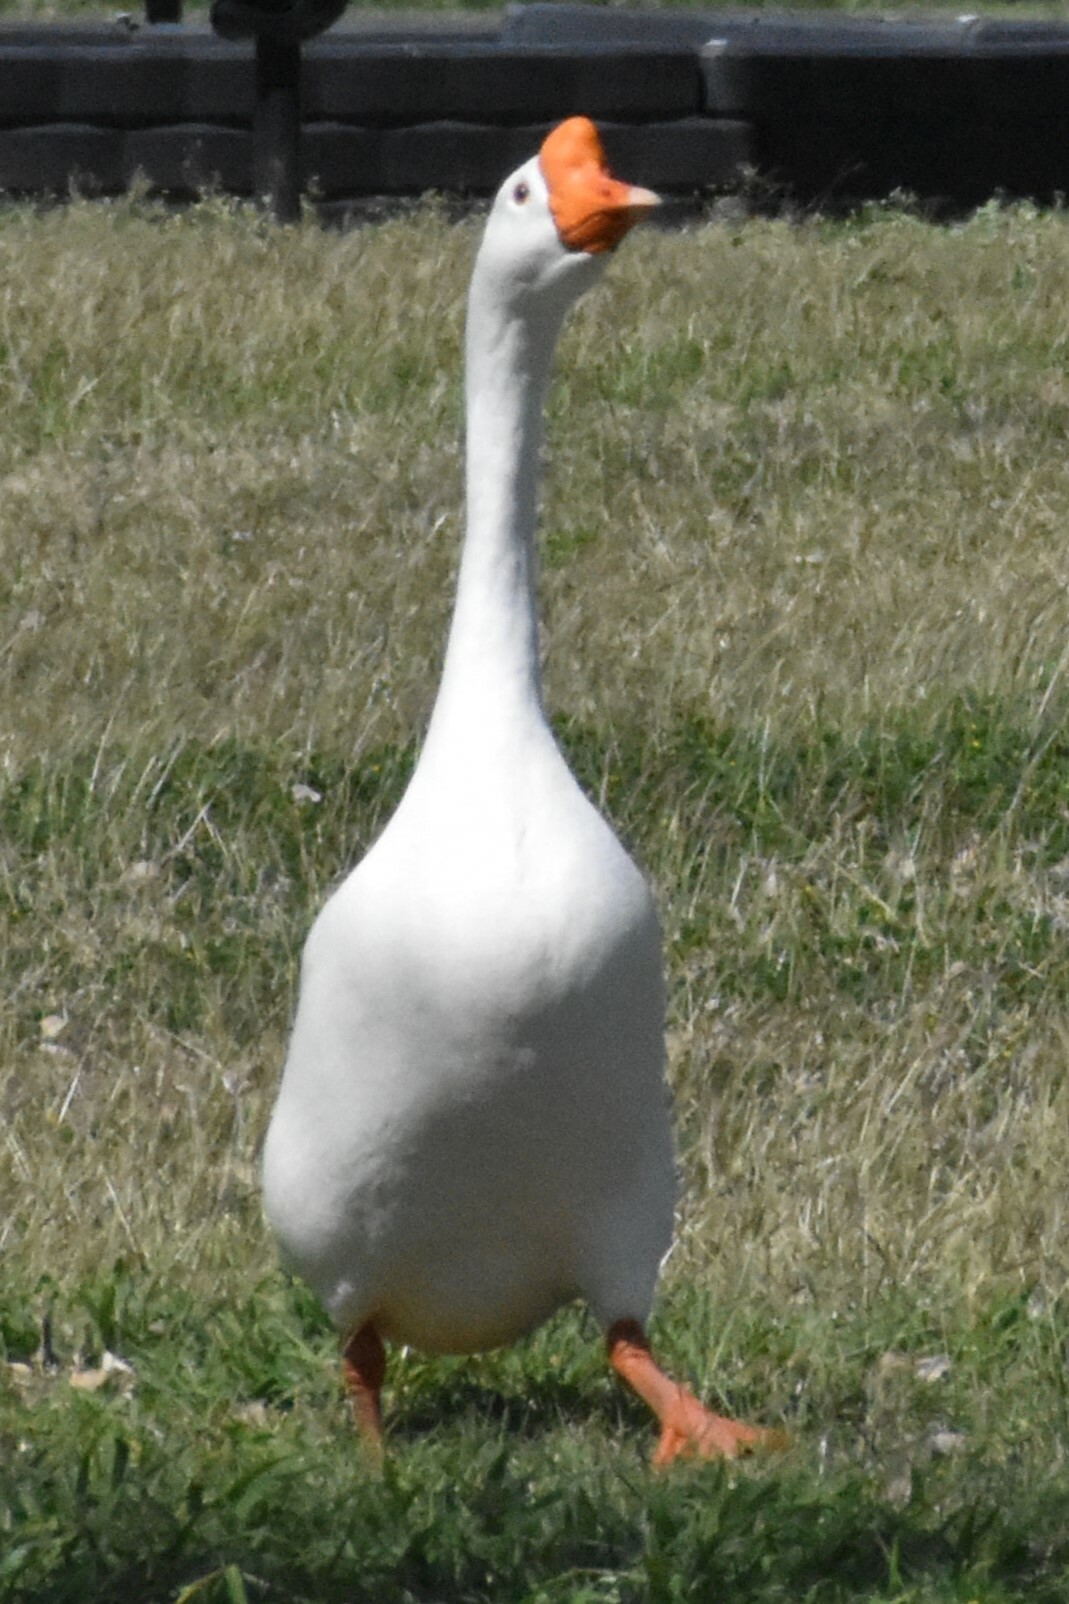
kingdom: Animalia
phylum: Chordata
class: Aves
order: Anseriformes
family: Anatidae
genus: Anser
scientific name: Anser cygnoides
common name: Swan goose
